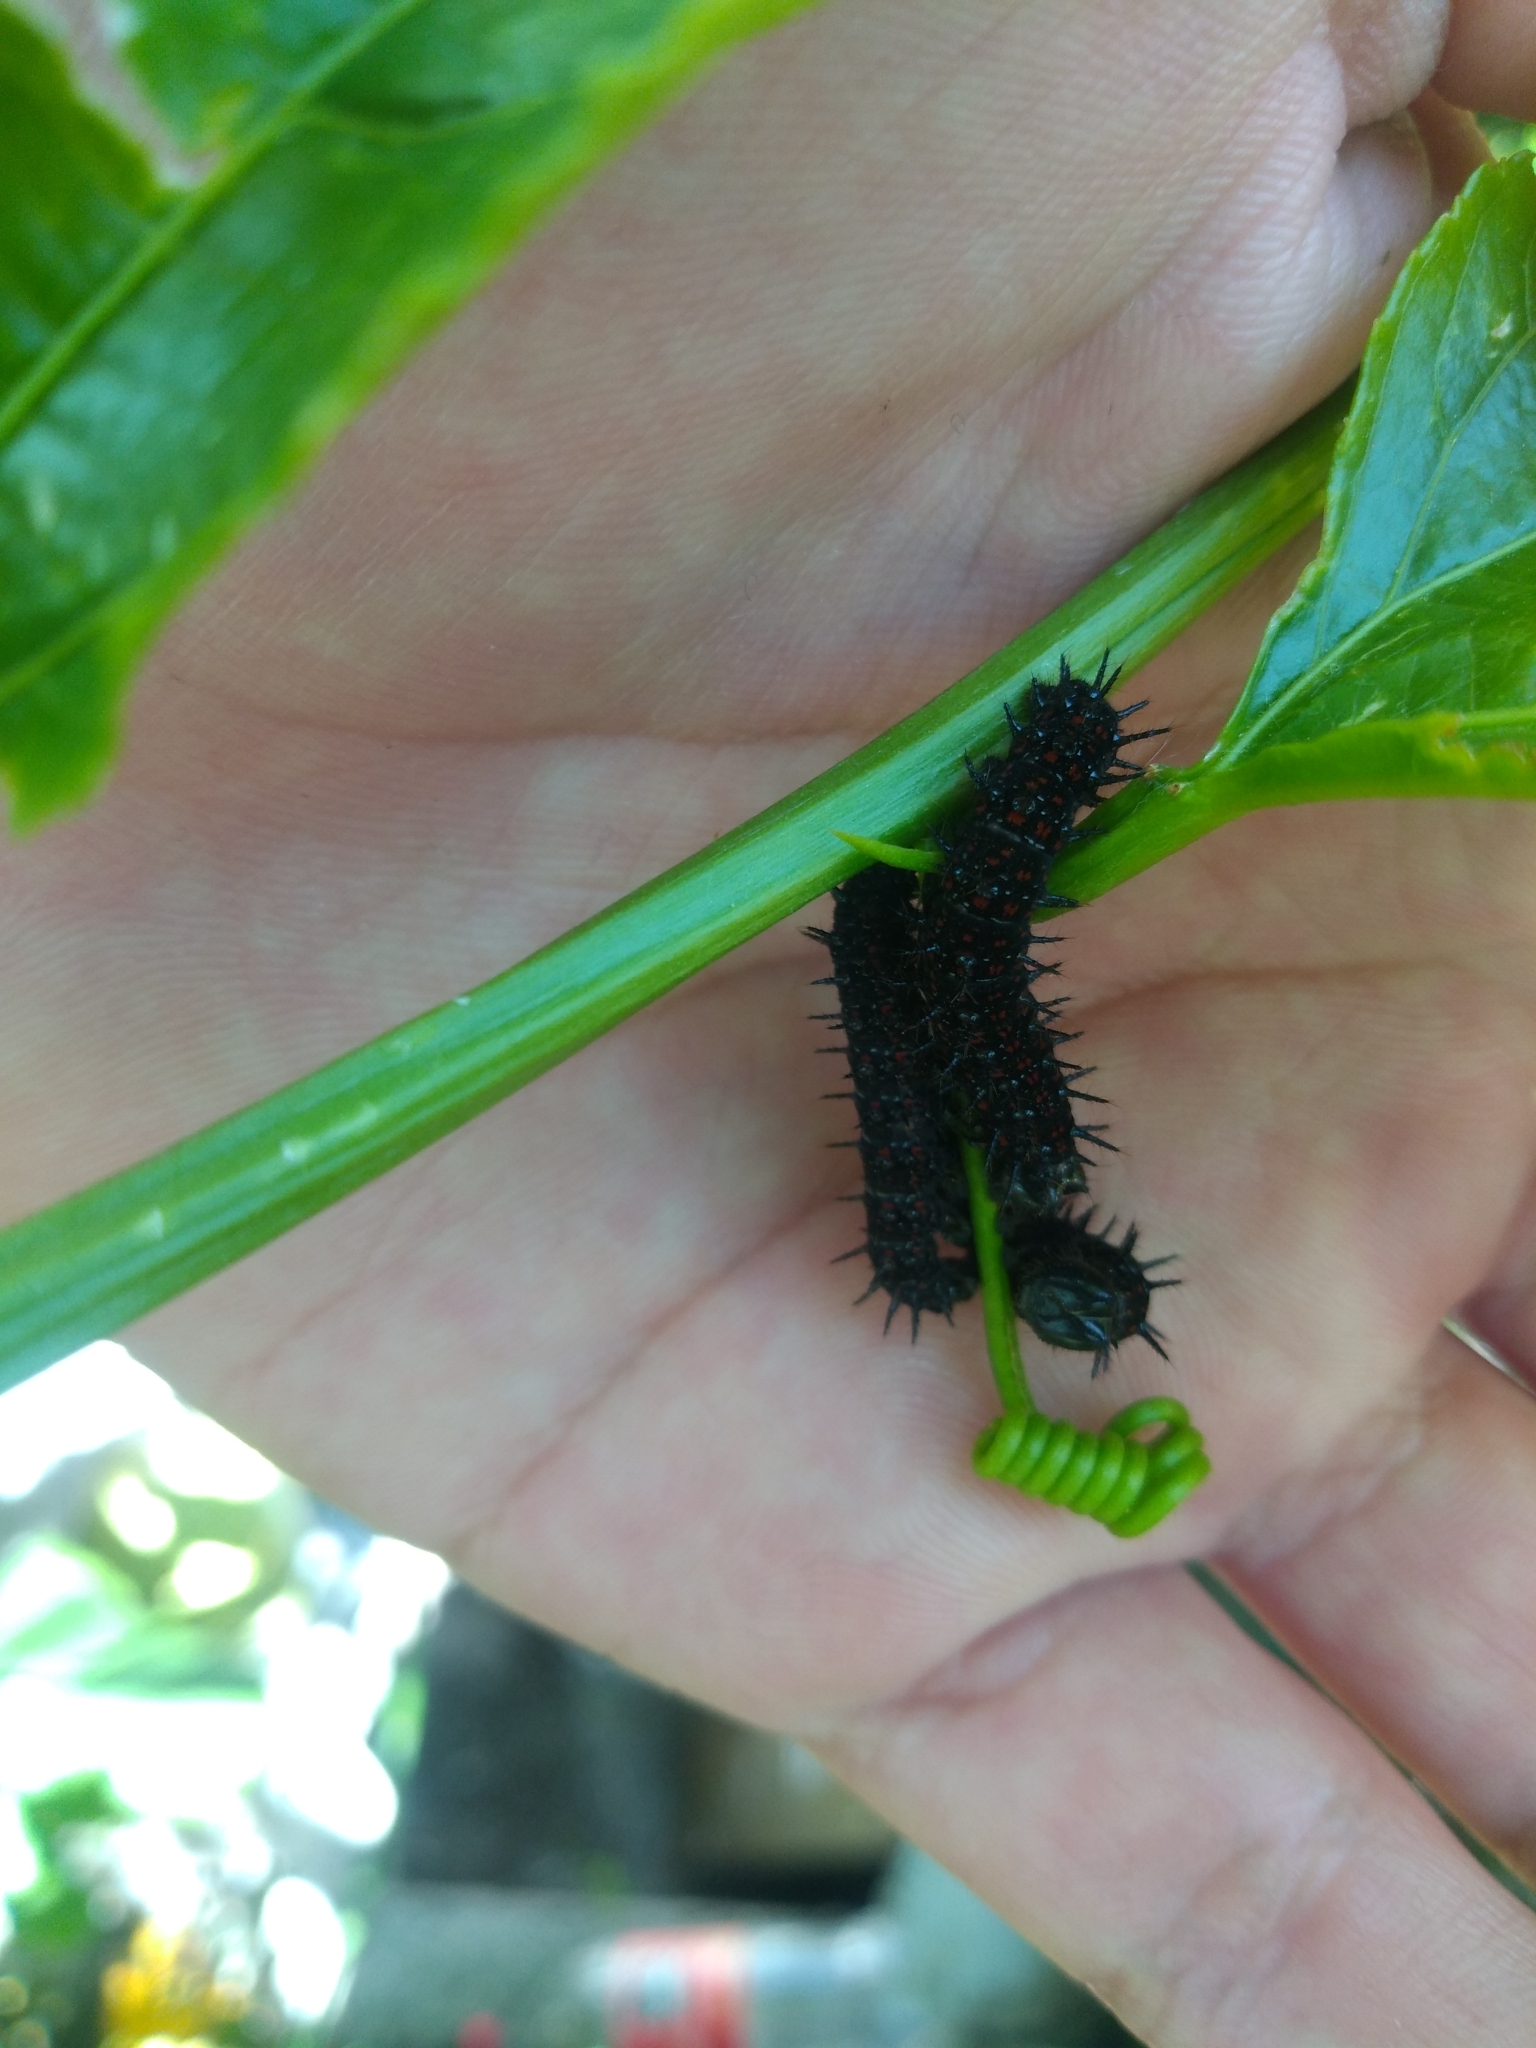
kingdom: Animalia
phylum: Arthropoda
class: Insecta
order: Lepidoptera
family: Nymphalidae
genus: Dione
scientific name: Dione juno
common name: Juno silverspot
